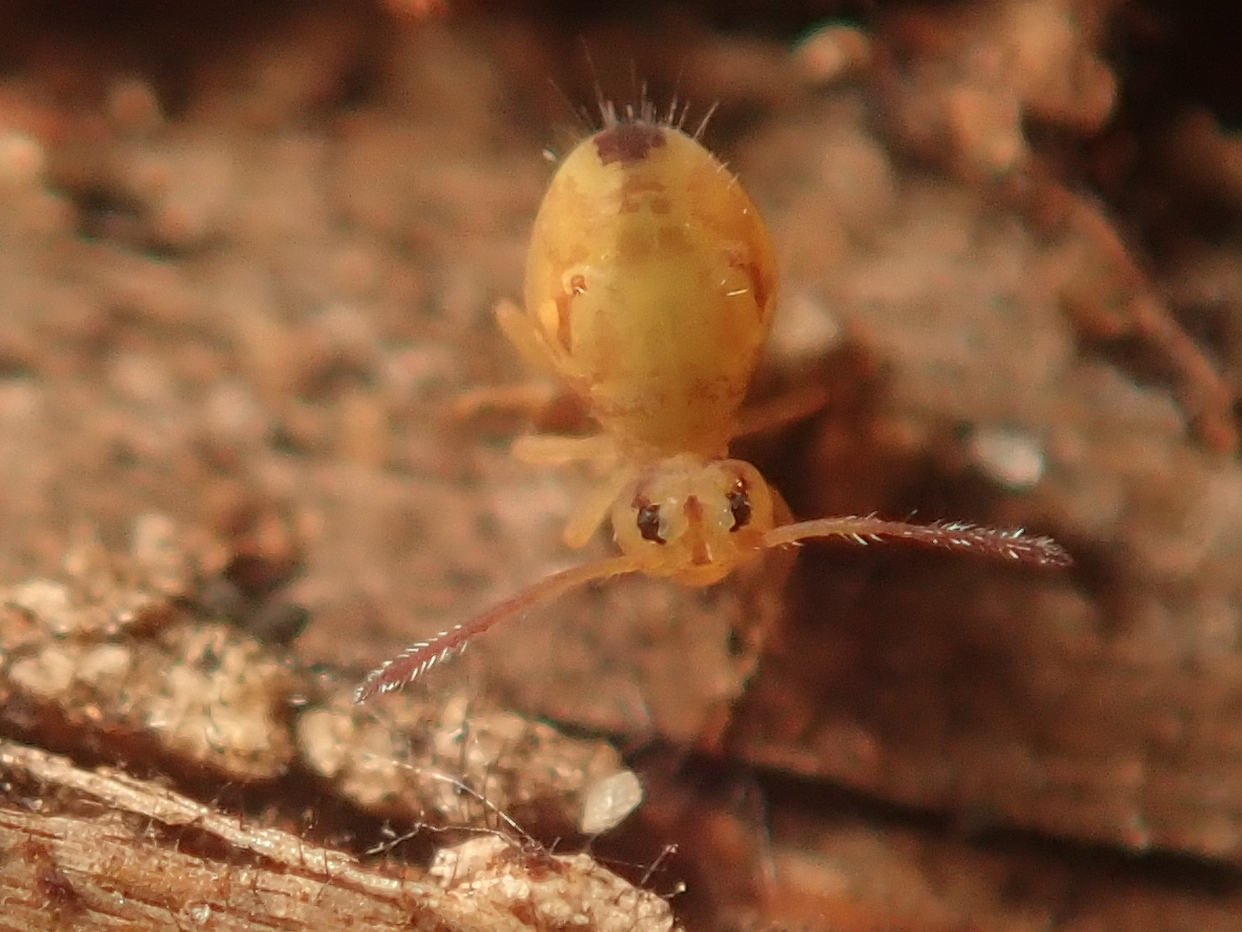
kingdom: Animalia
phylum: Arthropoda
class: Collembola
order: Symphypleona
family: Dicyrtomidae
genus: Dicyrtomina
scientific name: Dicyrtomina ornata
